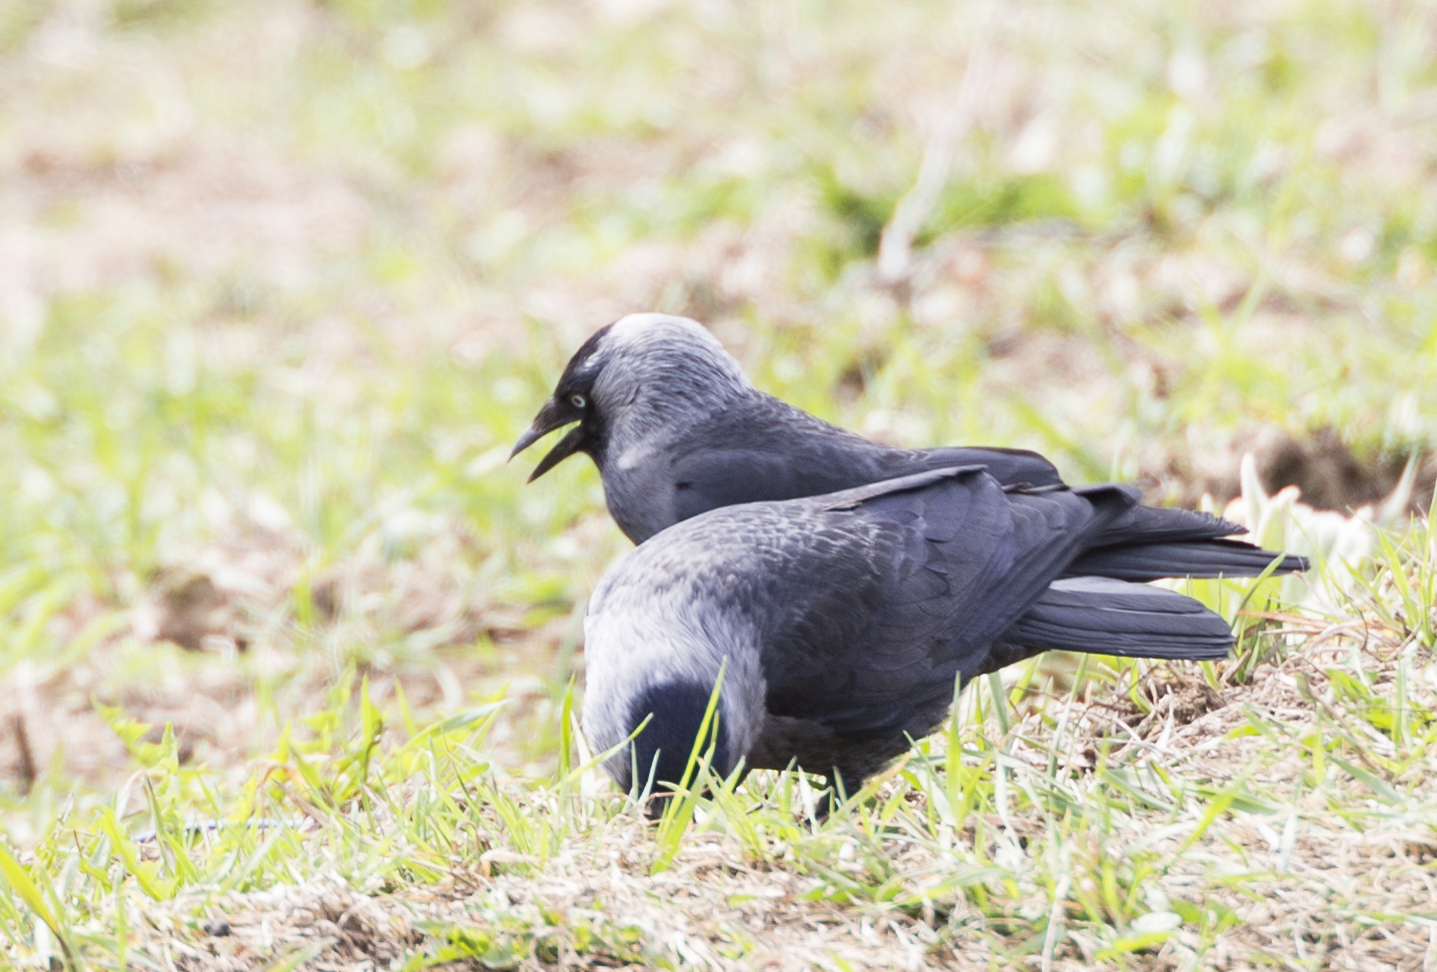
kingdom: Animalia
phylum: Chordata
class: Aves
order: Passeriformes
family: Corvidae
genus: Coloeus
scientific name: Coloeus monedula
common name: Western jackdaw
